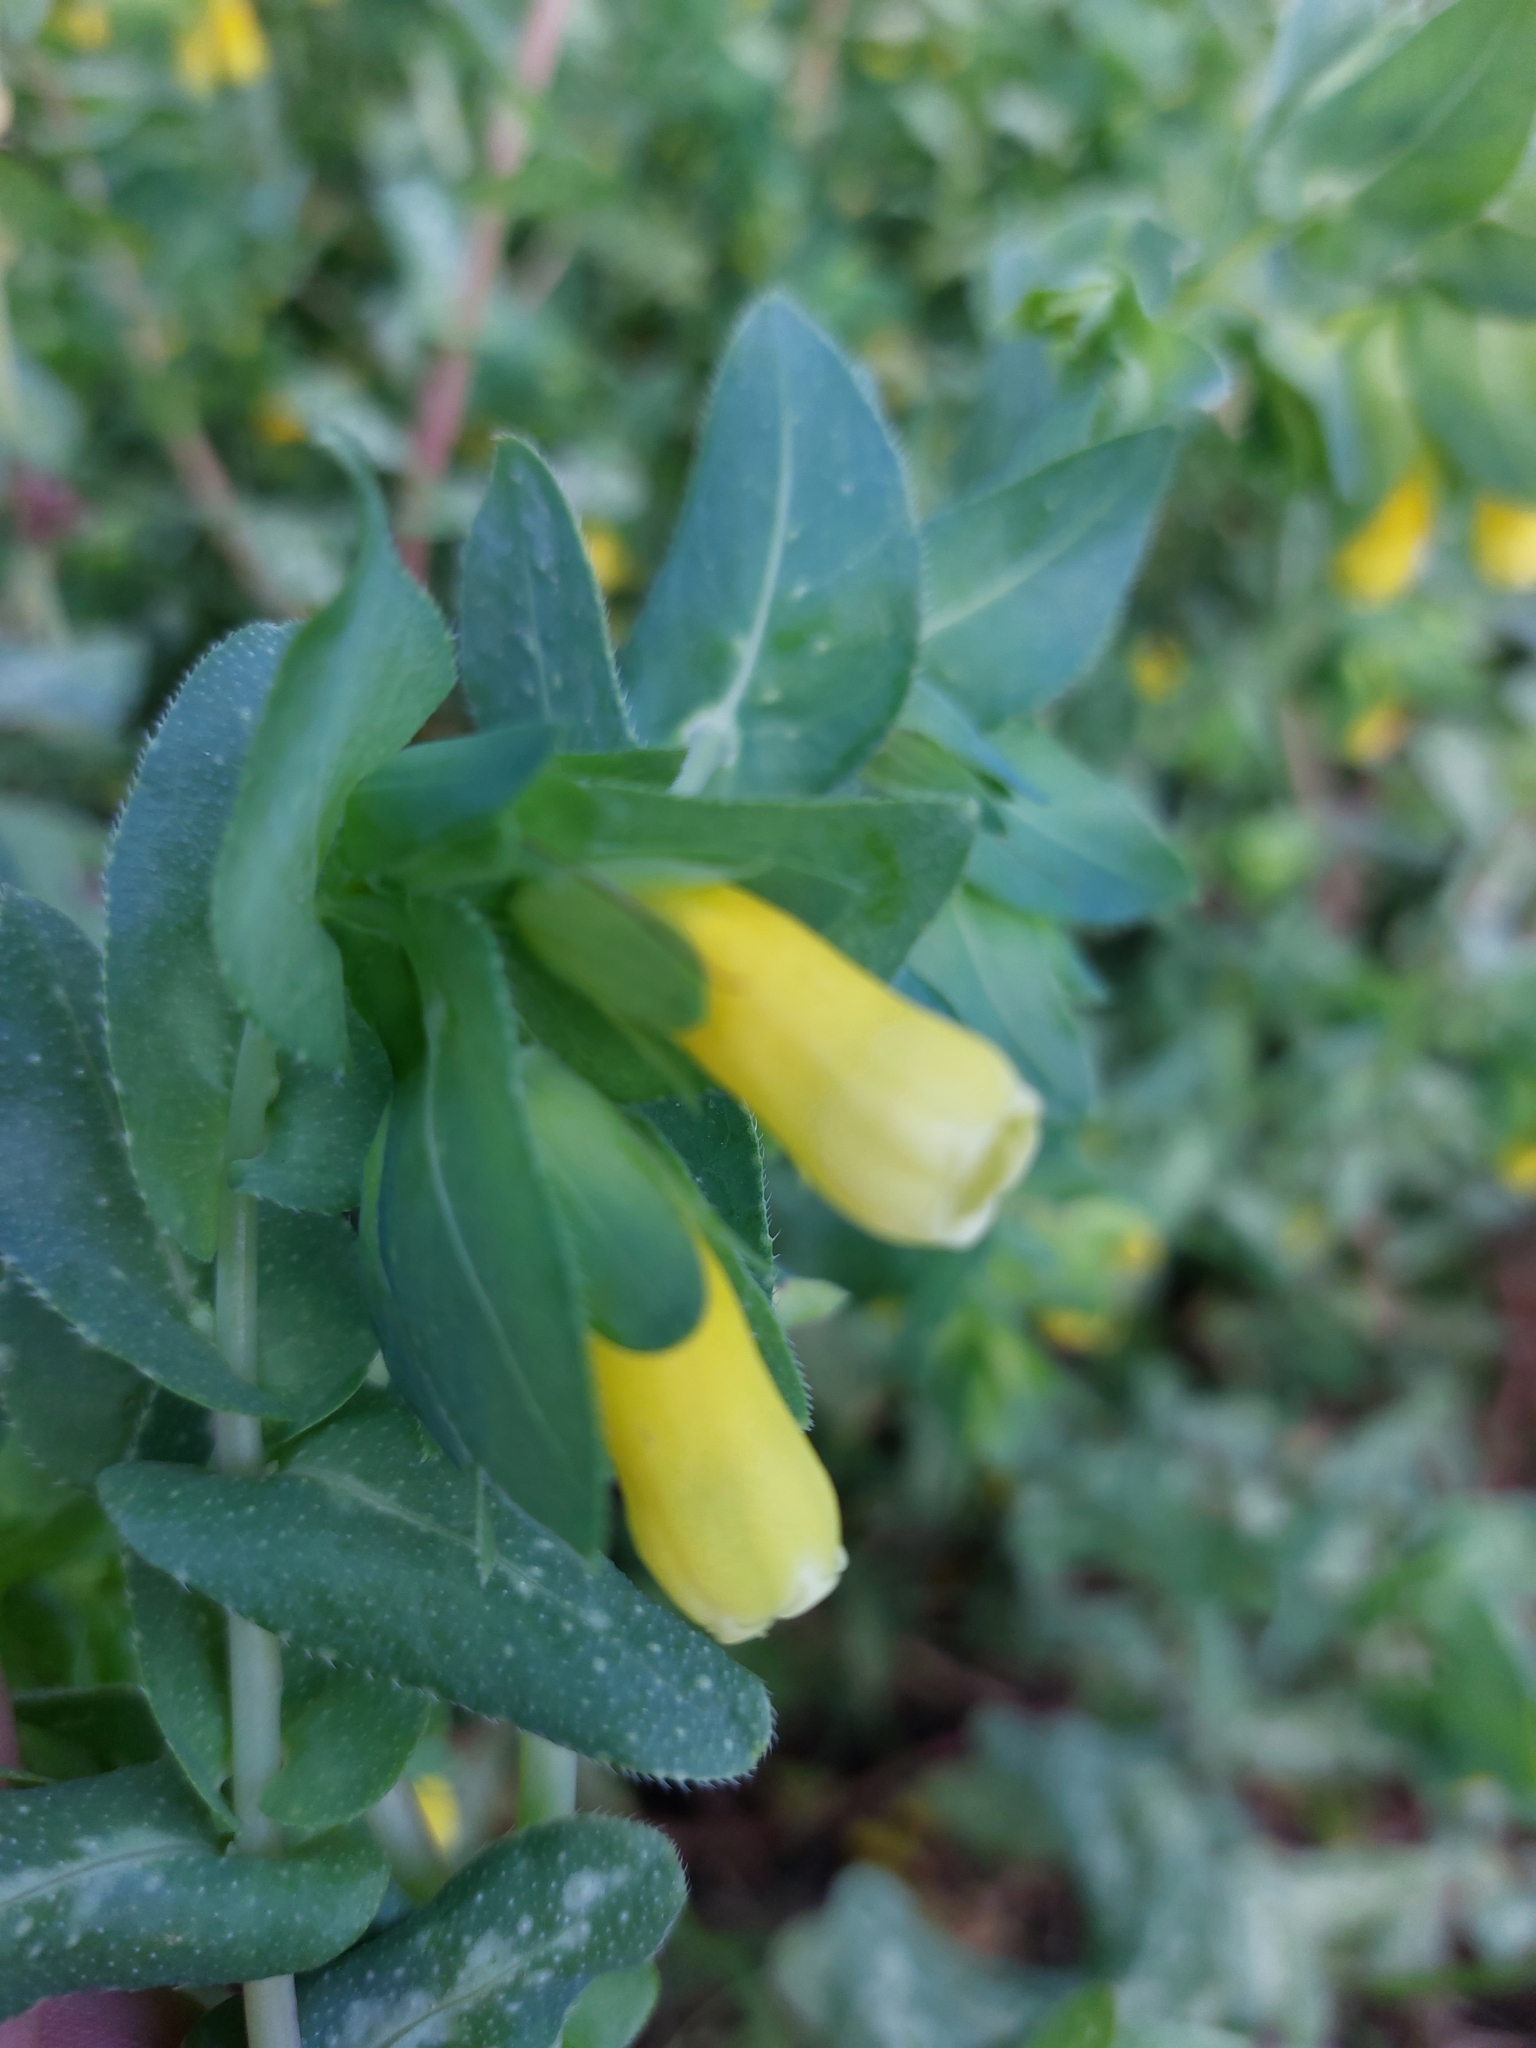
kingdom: Plantae
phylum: Tracheophyta
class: Magnoliopsida
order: Boraginales
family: Boraginaceae
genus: Cerinthe
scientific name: Cerinthe major
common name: Greater honeywort
